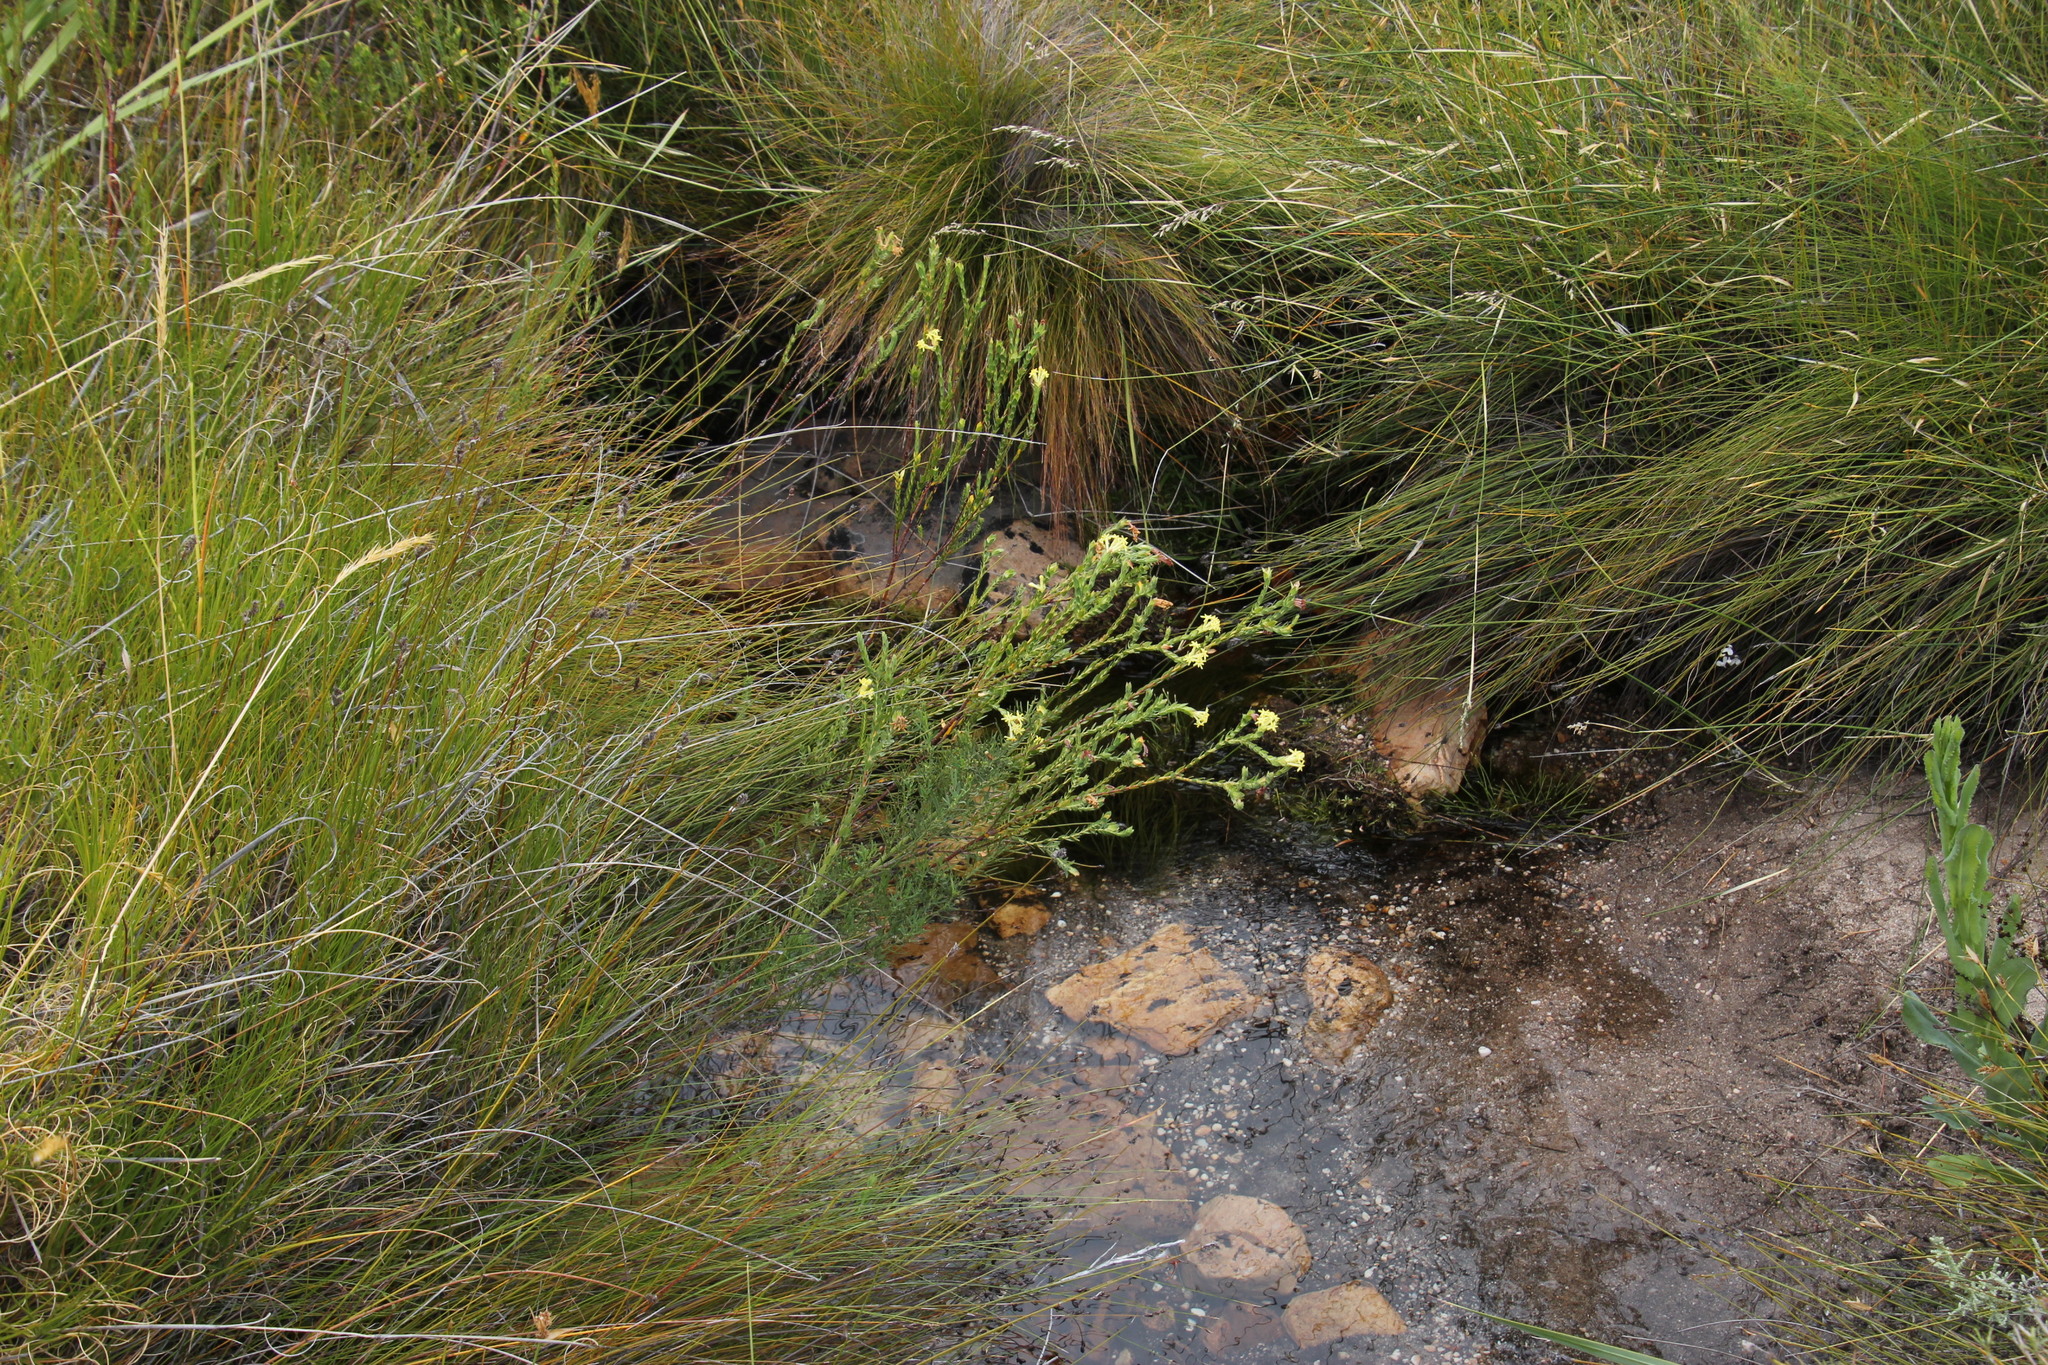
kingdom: Plantae
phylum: Tracheophyta
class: Magnoliopsida
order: Malvales
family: Thymelaeaceae
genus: Gnidia
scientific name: Gnidia oppositifolia
